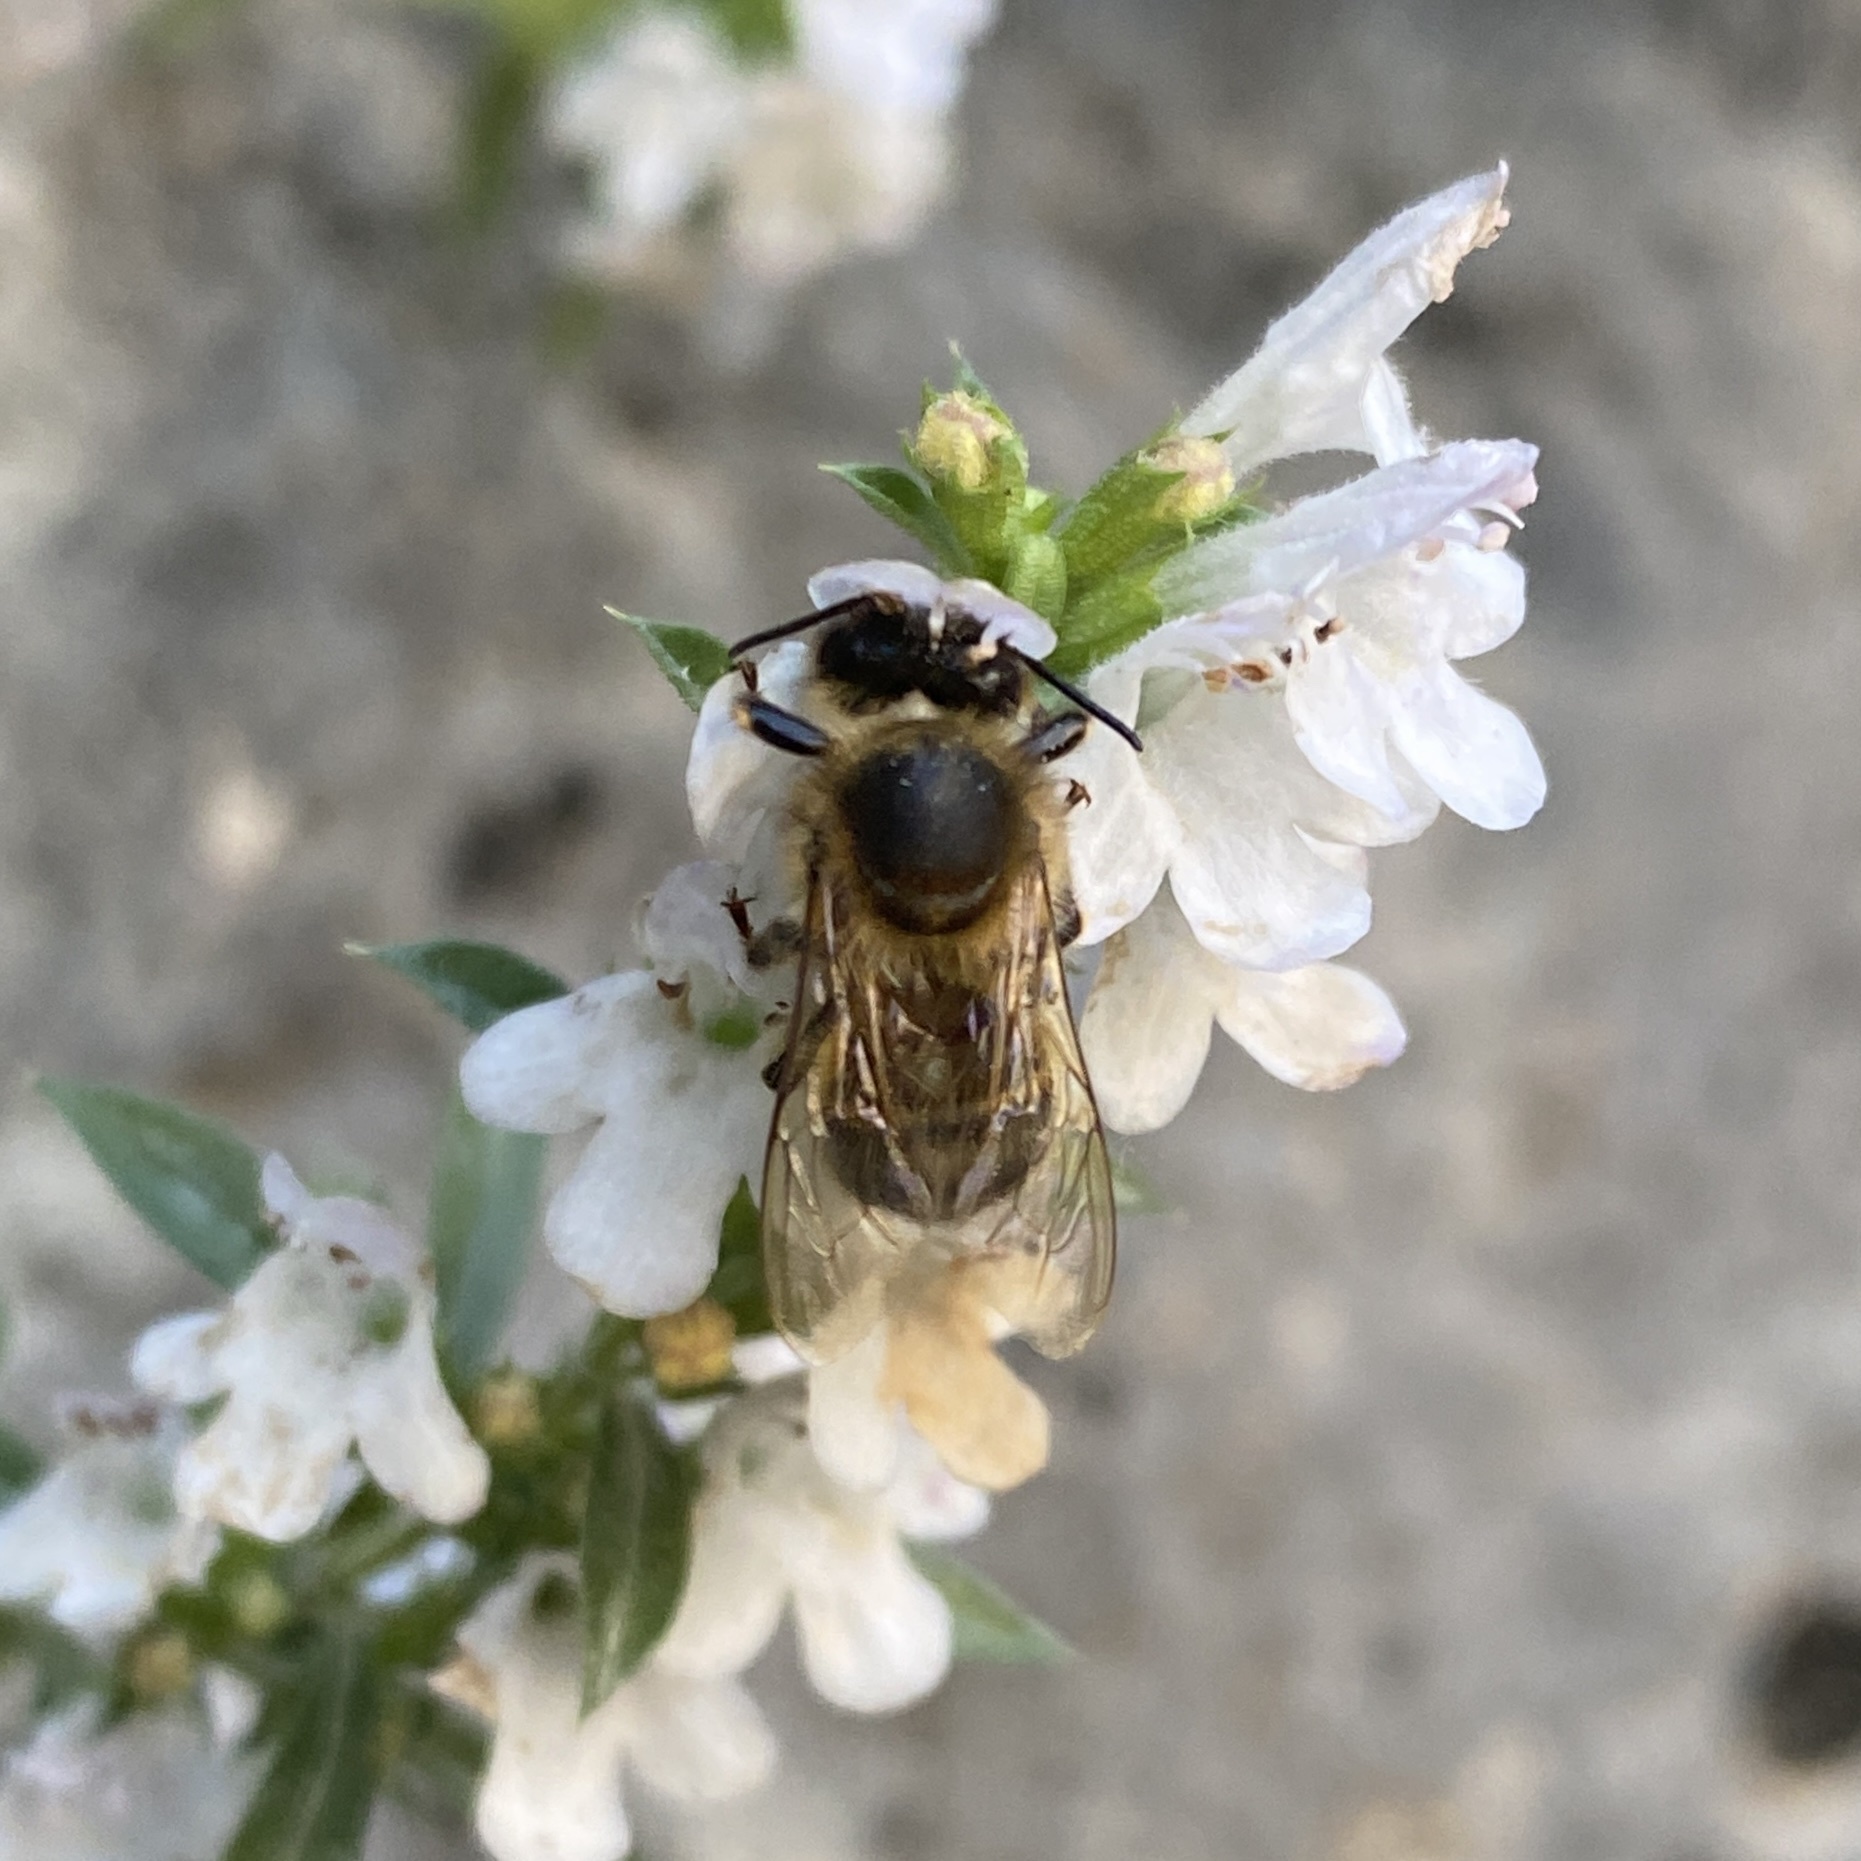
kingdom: Animalia
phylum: Arthropoda
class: Insecta
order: Hymenoptera
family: Apidae
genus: Apis
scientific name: Apis mellifera
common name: Honey bee
